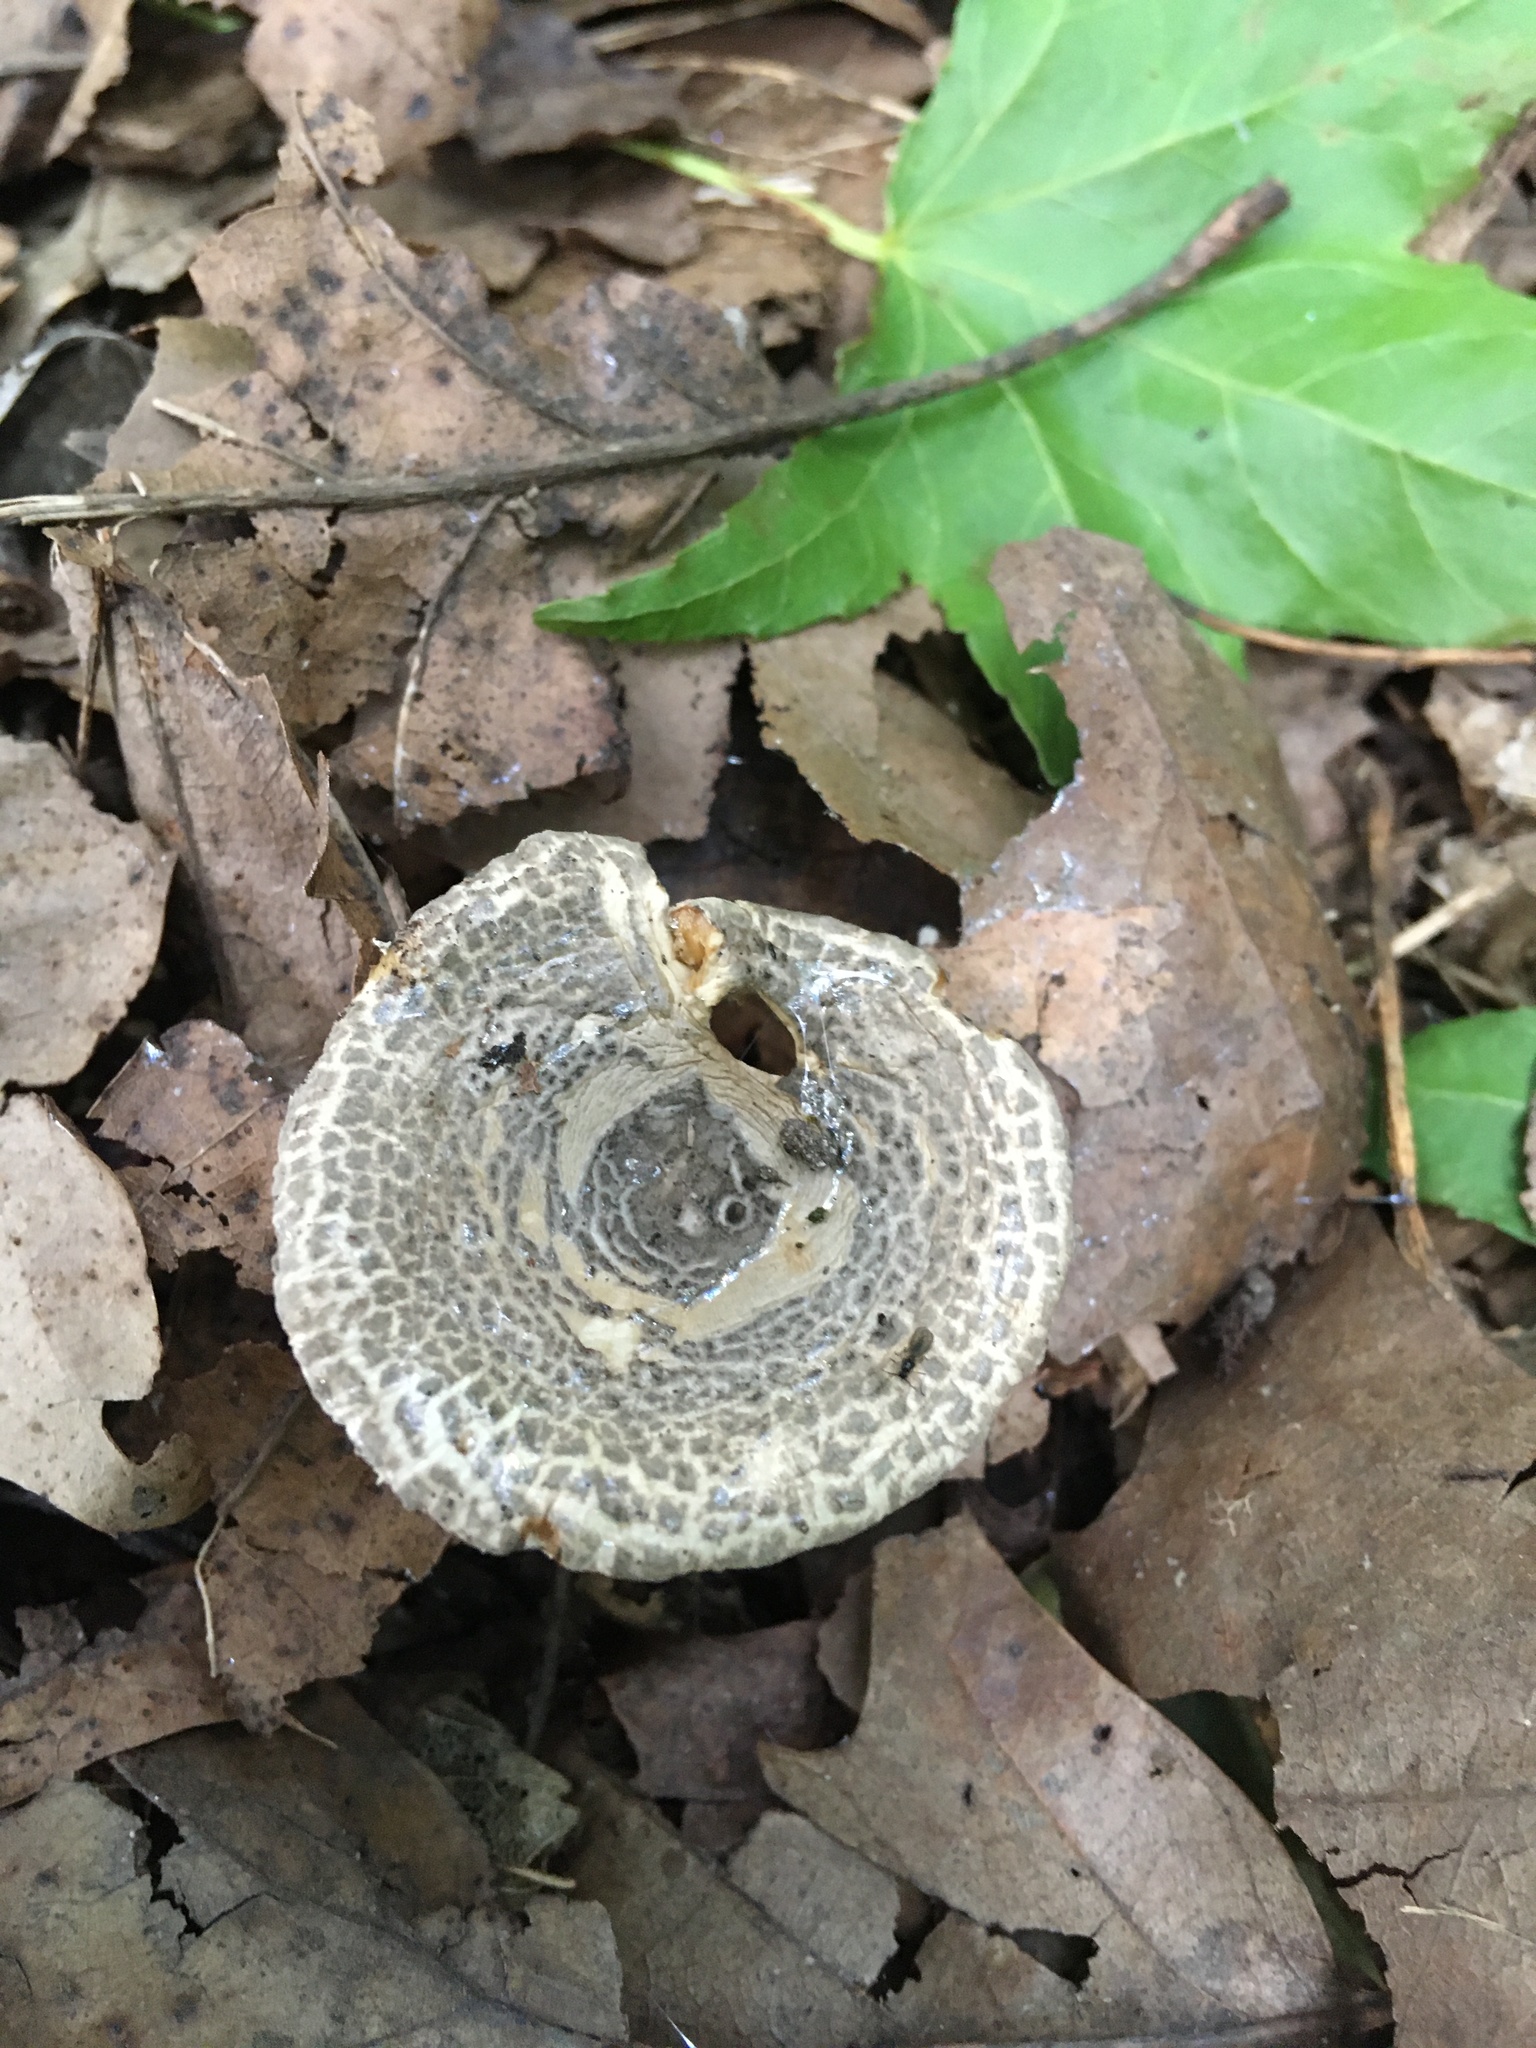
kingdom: Fungi
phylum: Basidiomycota
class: Agaricomycetes
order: Agaricales
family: Amanitaceae
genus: Amanita
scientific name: Amanita onusta
